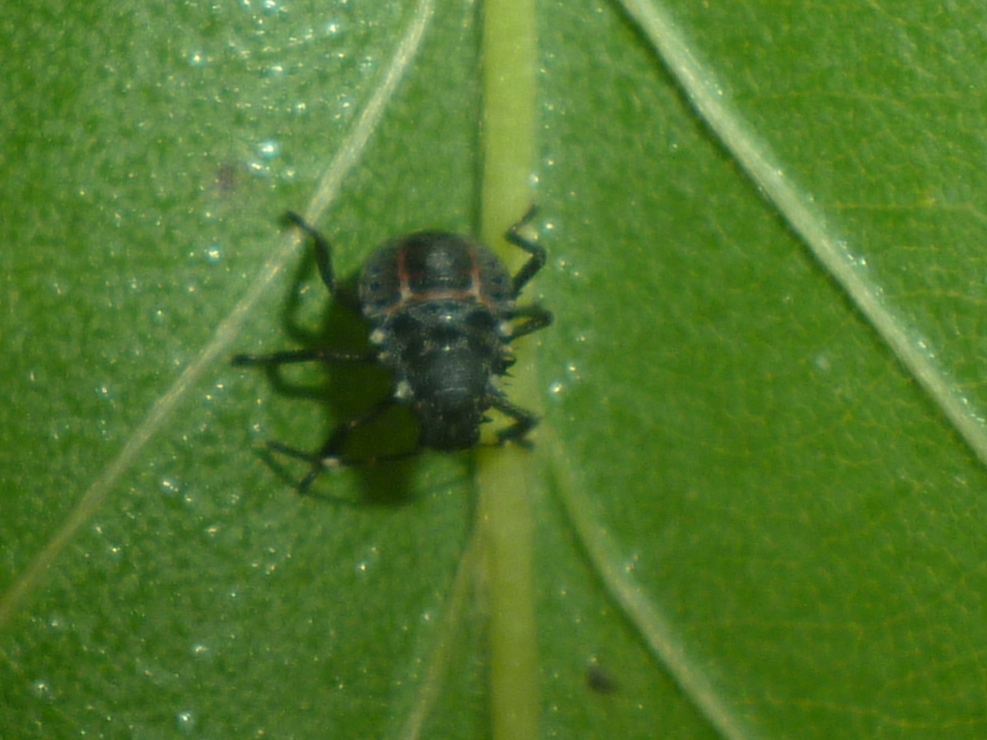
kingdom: Animalia
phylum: Arthropoda
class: Insecta
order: Hemiptera
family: Pentatomidae
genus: Halyomorpha
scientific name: Halyomorpha halys
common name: Brown marmorated stink bug
